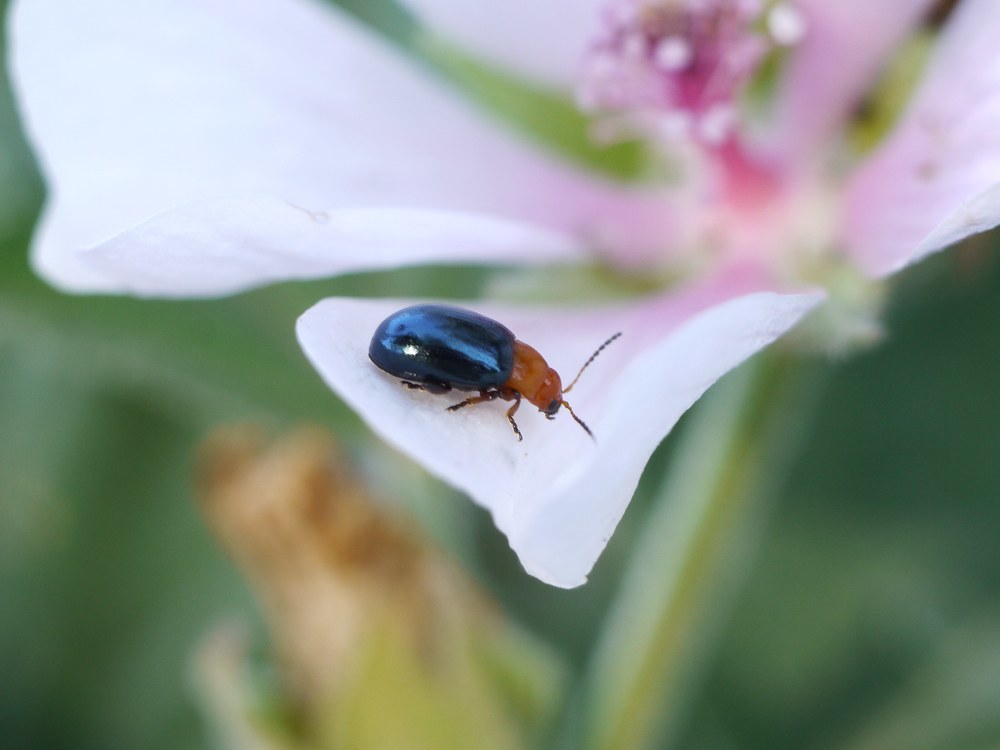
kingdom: Animalia
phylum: Arthropoda
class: Insecta
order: Coleoptera
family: Chrysomelidae
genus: Podagrica
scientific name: Podagrica fuscicornis
